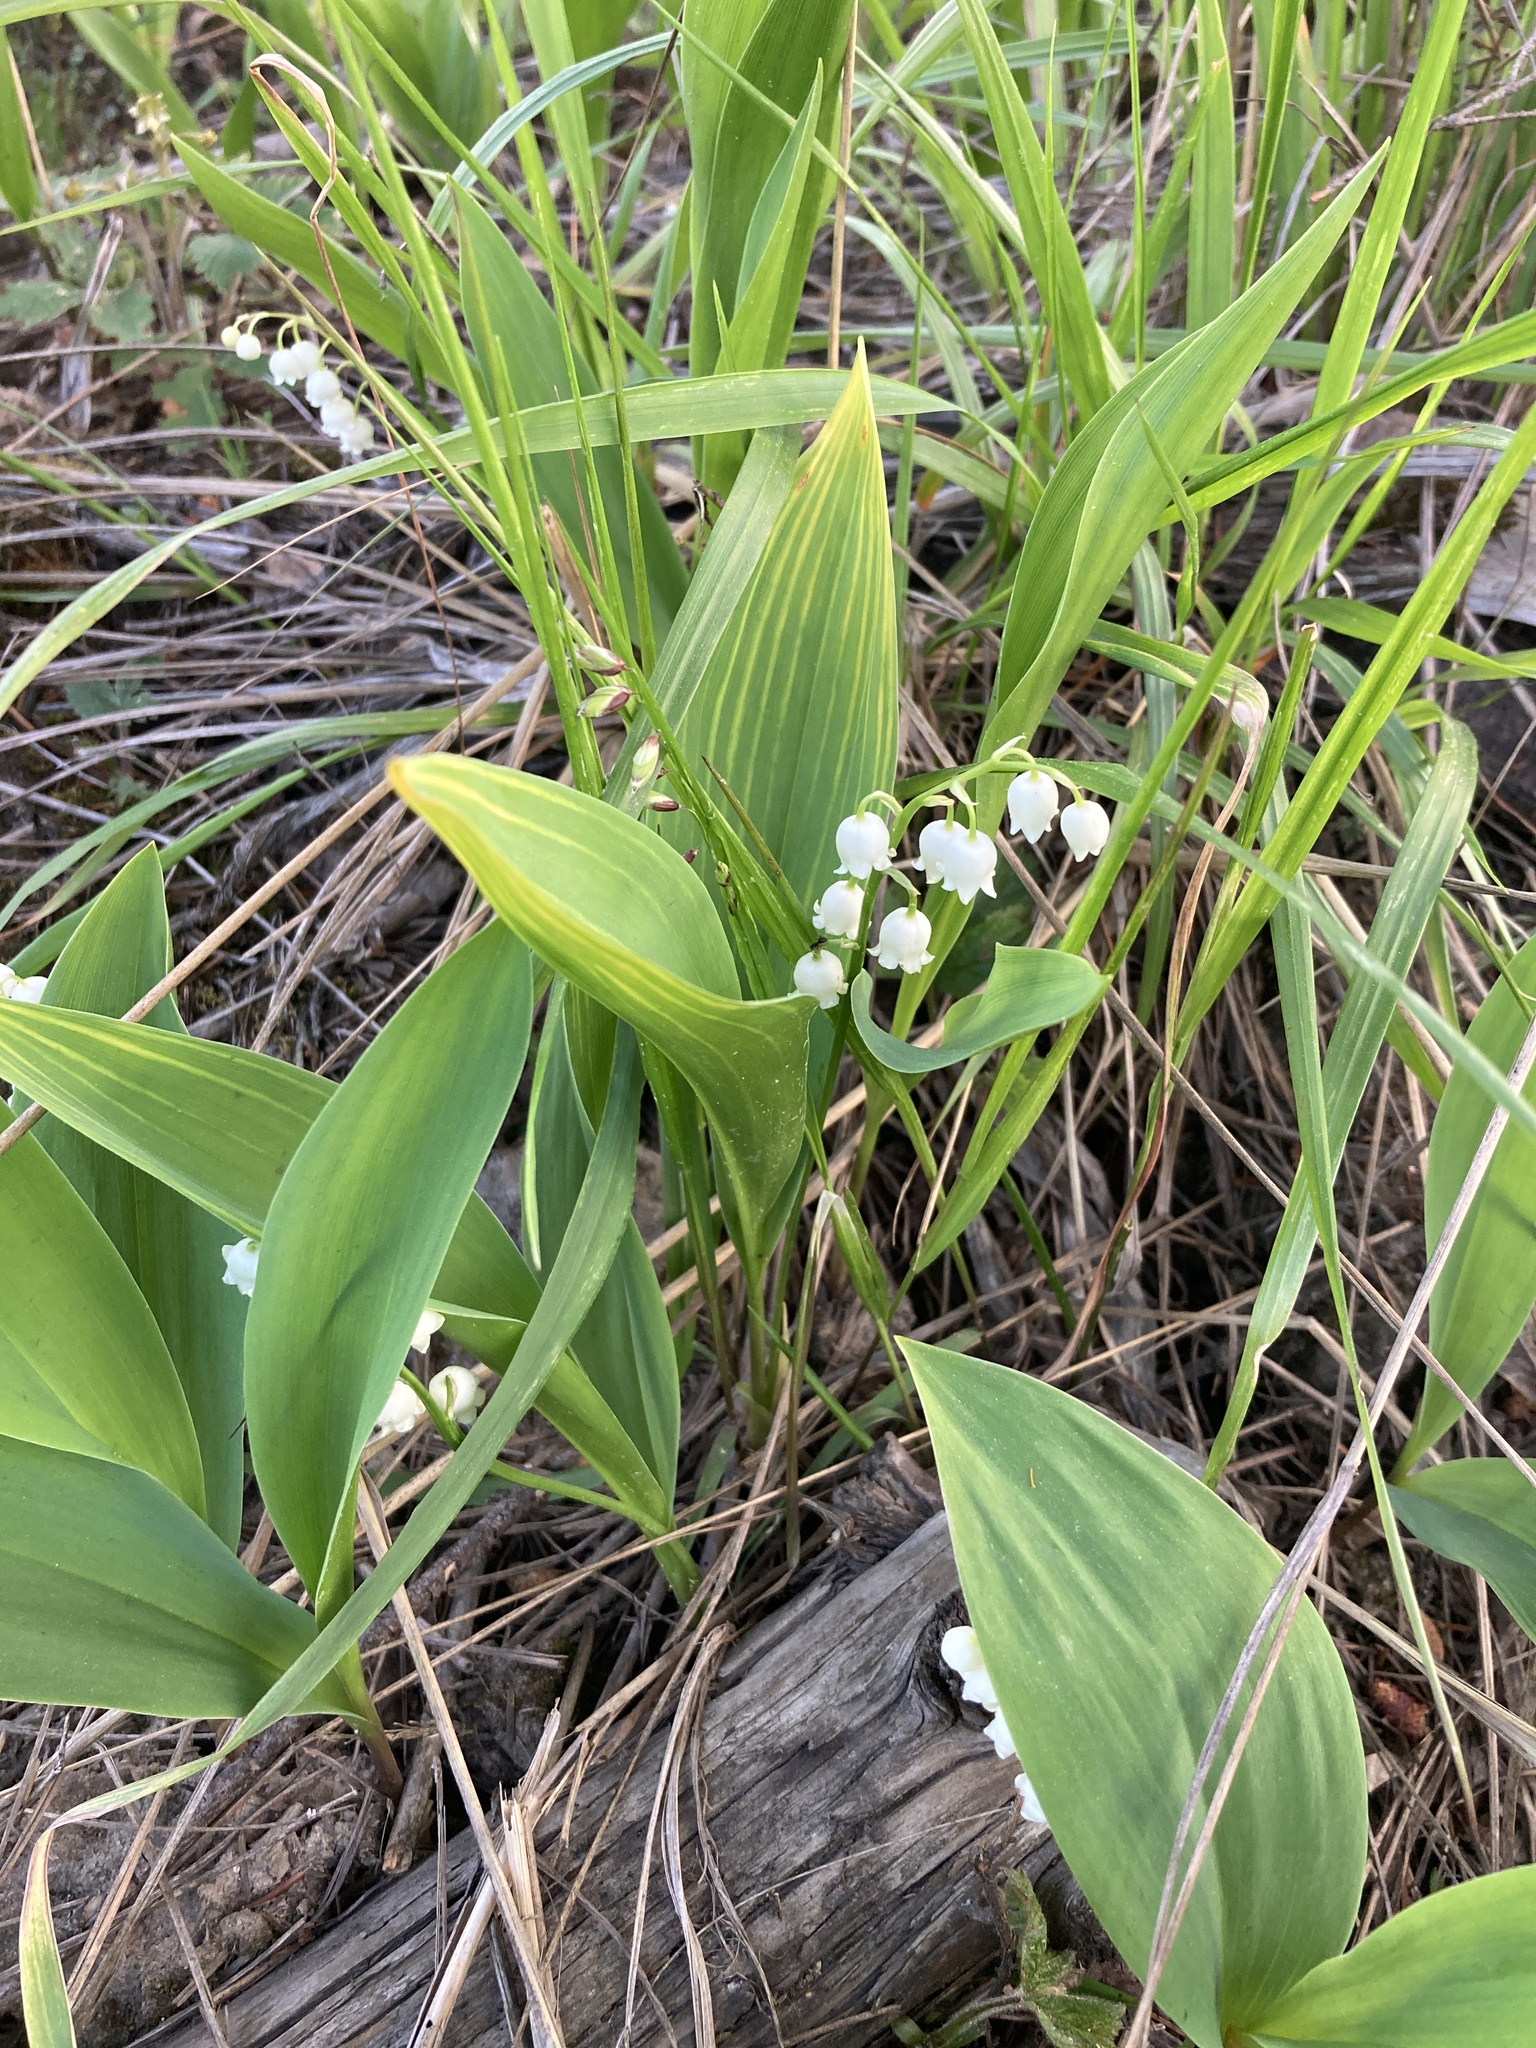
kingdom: Plantae
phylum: Tracheophyta
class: Liliopsida
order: Asparagales
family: Asparagaceae
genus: Convallaria
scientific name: Convallaria majalis
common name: Lily-of-the-valley
